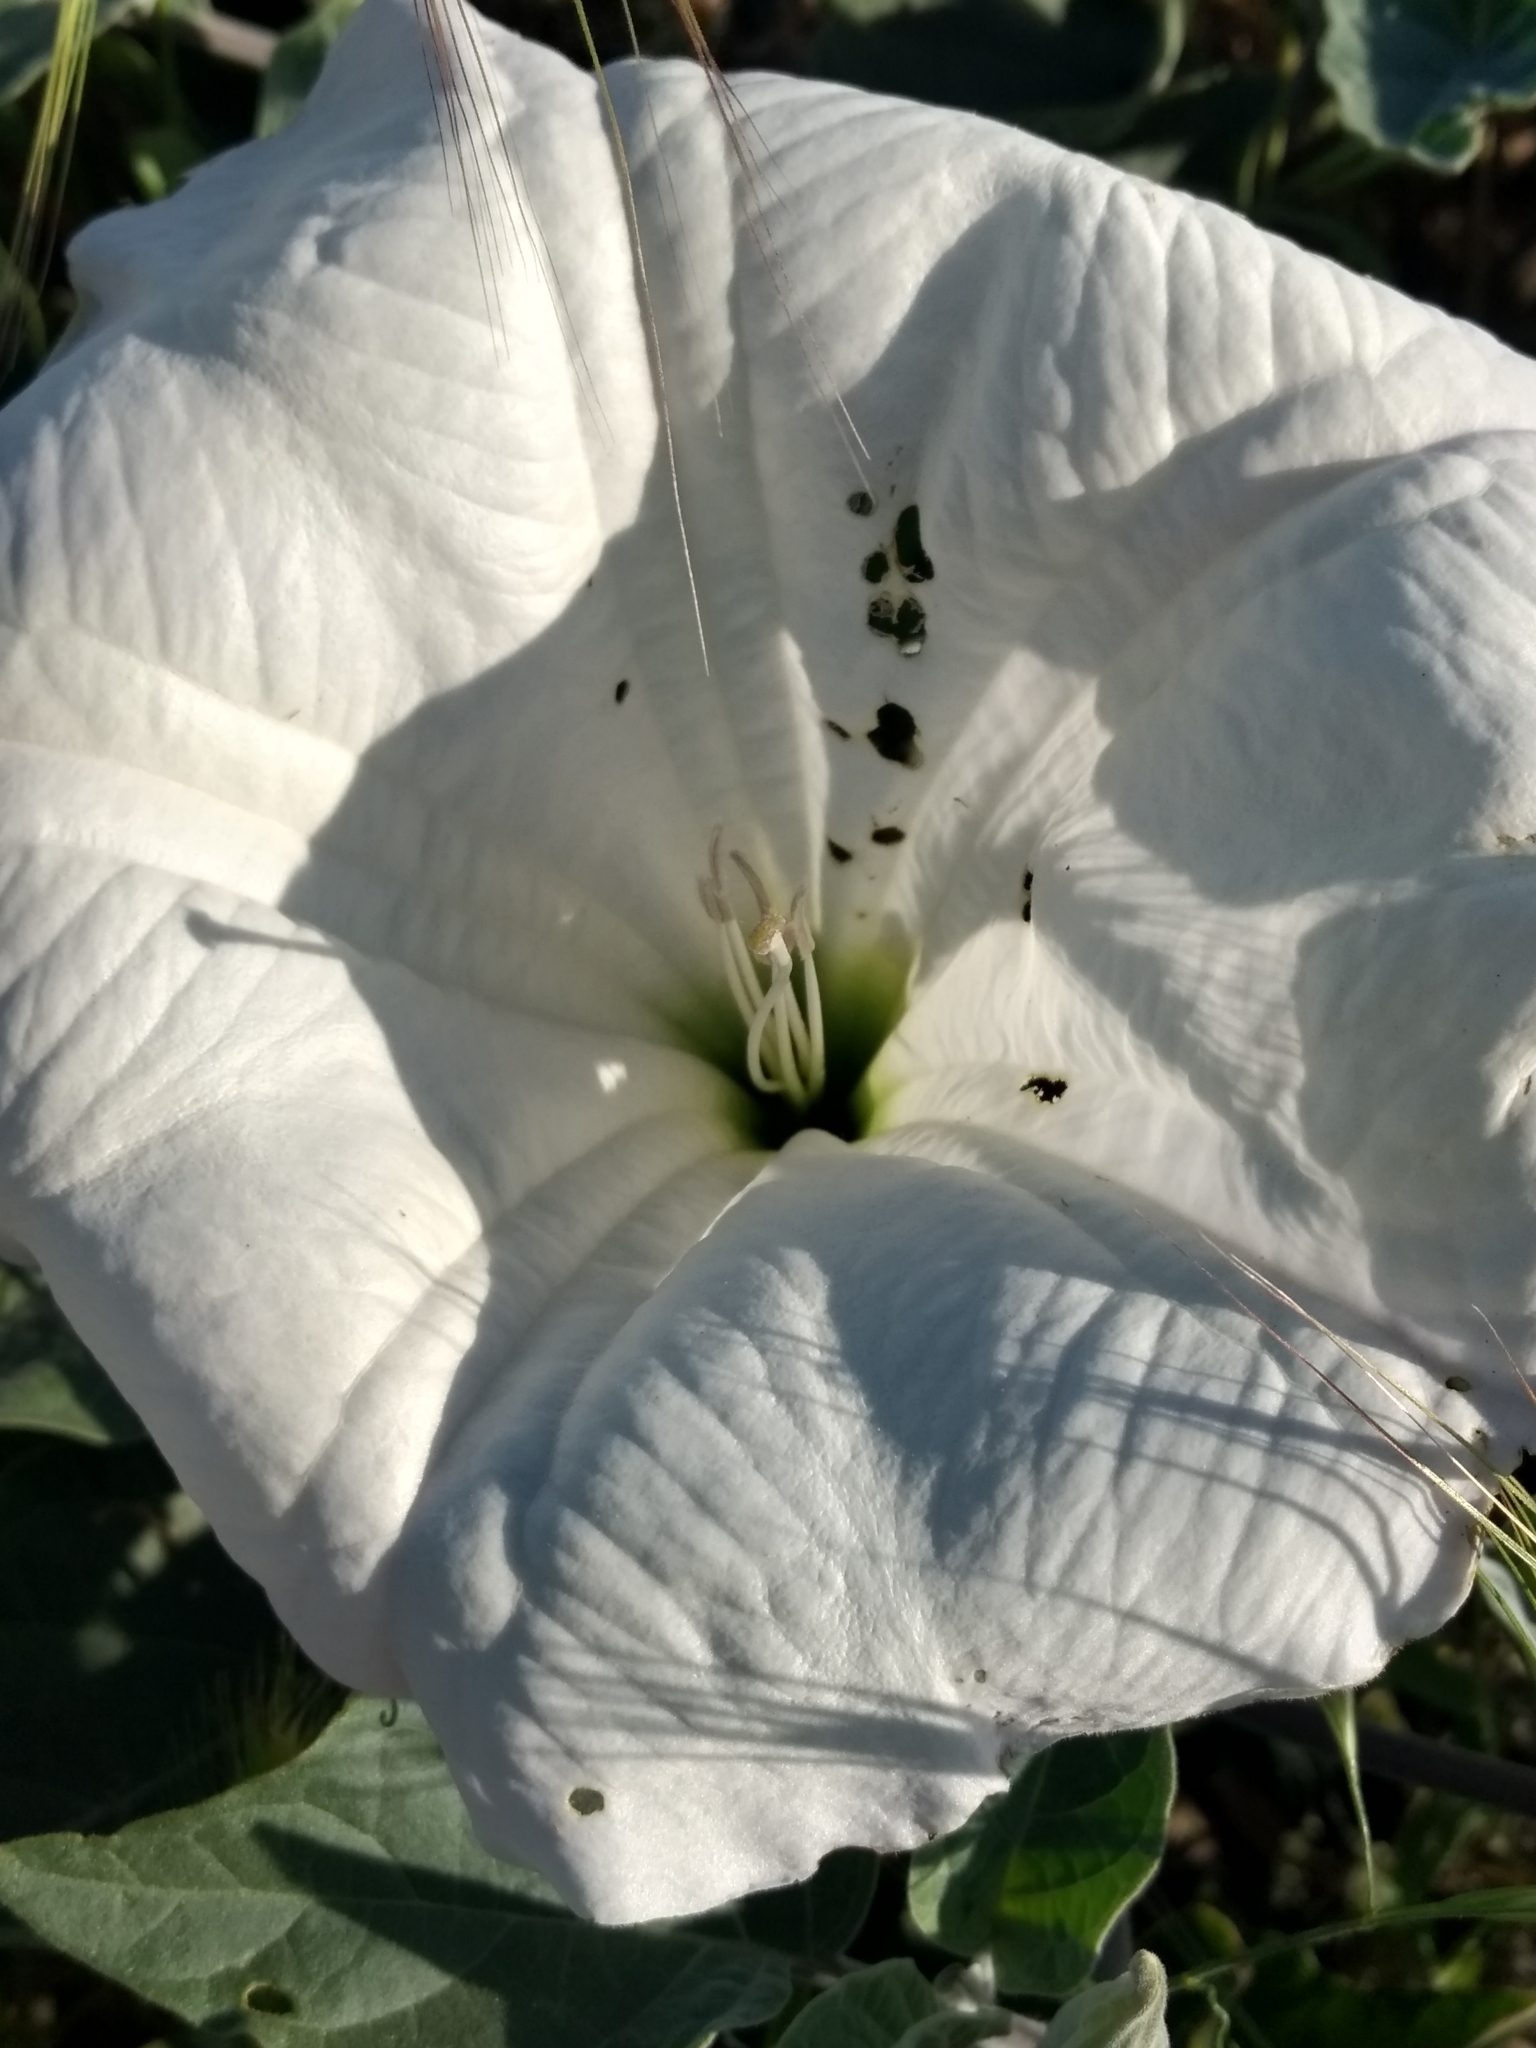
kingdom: Plantae
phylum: Tracheophyta
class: Magnoliopsida
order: Solanales
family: Solanaceae
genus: Datura
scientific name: Datura wrightii
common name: Sacred thorn-apple
